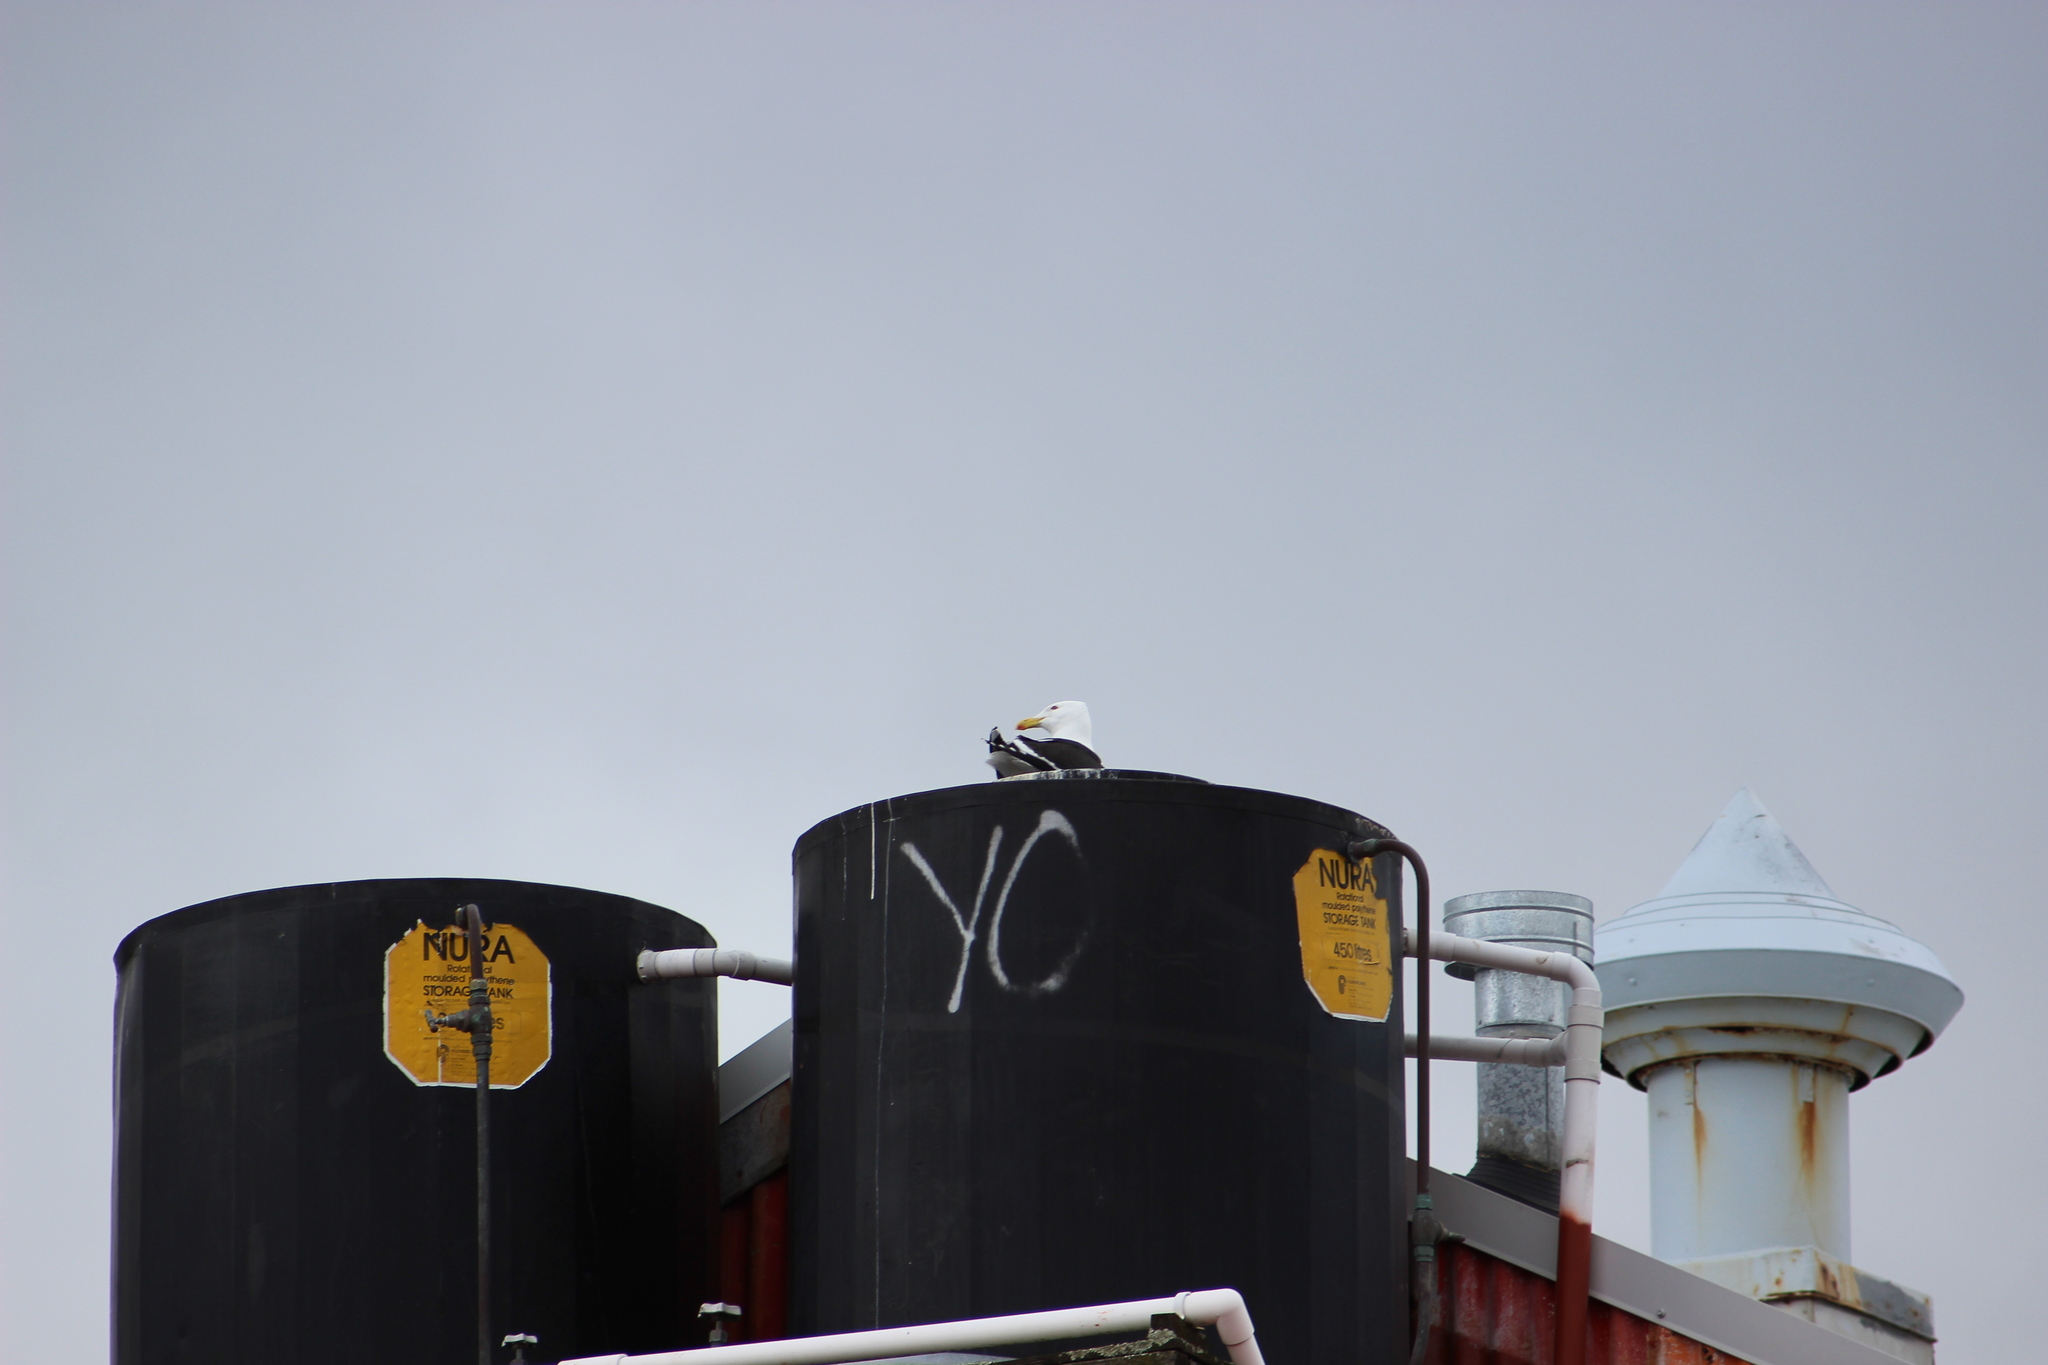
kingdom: Animalia
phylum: Chordata
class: Aves
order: Charadriiformes
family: Laridae
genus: Larus
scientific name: Larus dominicanus
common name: Kelp gull
